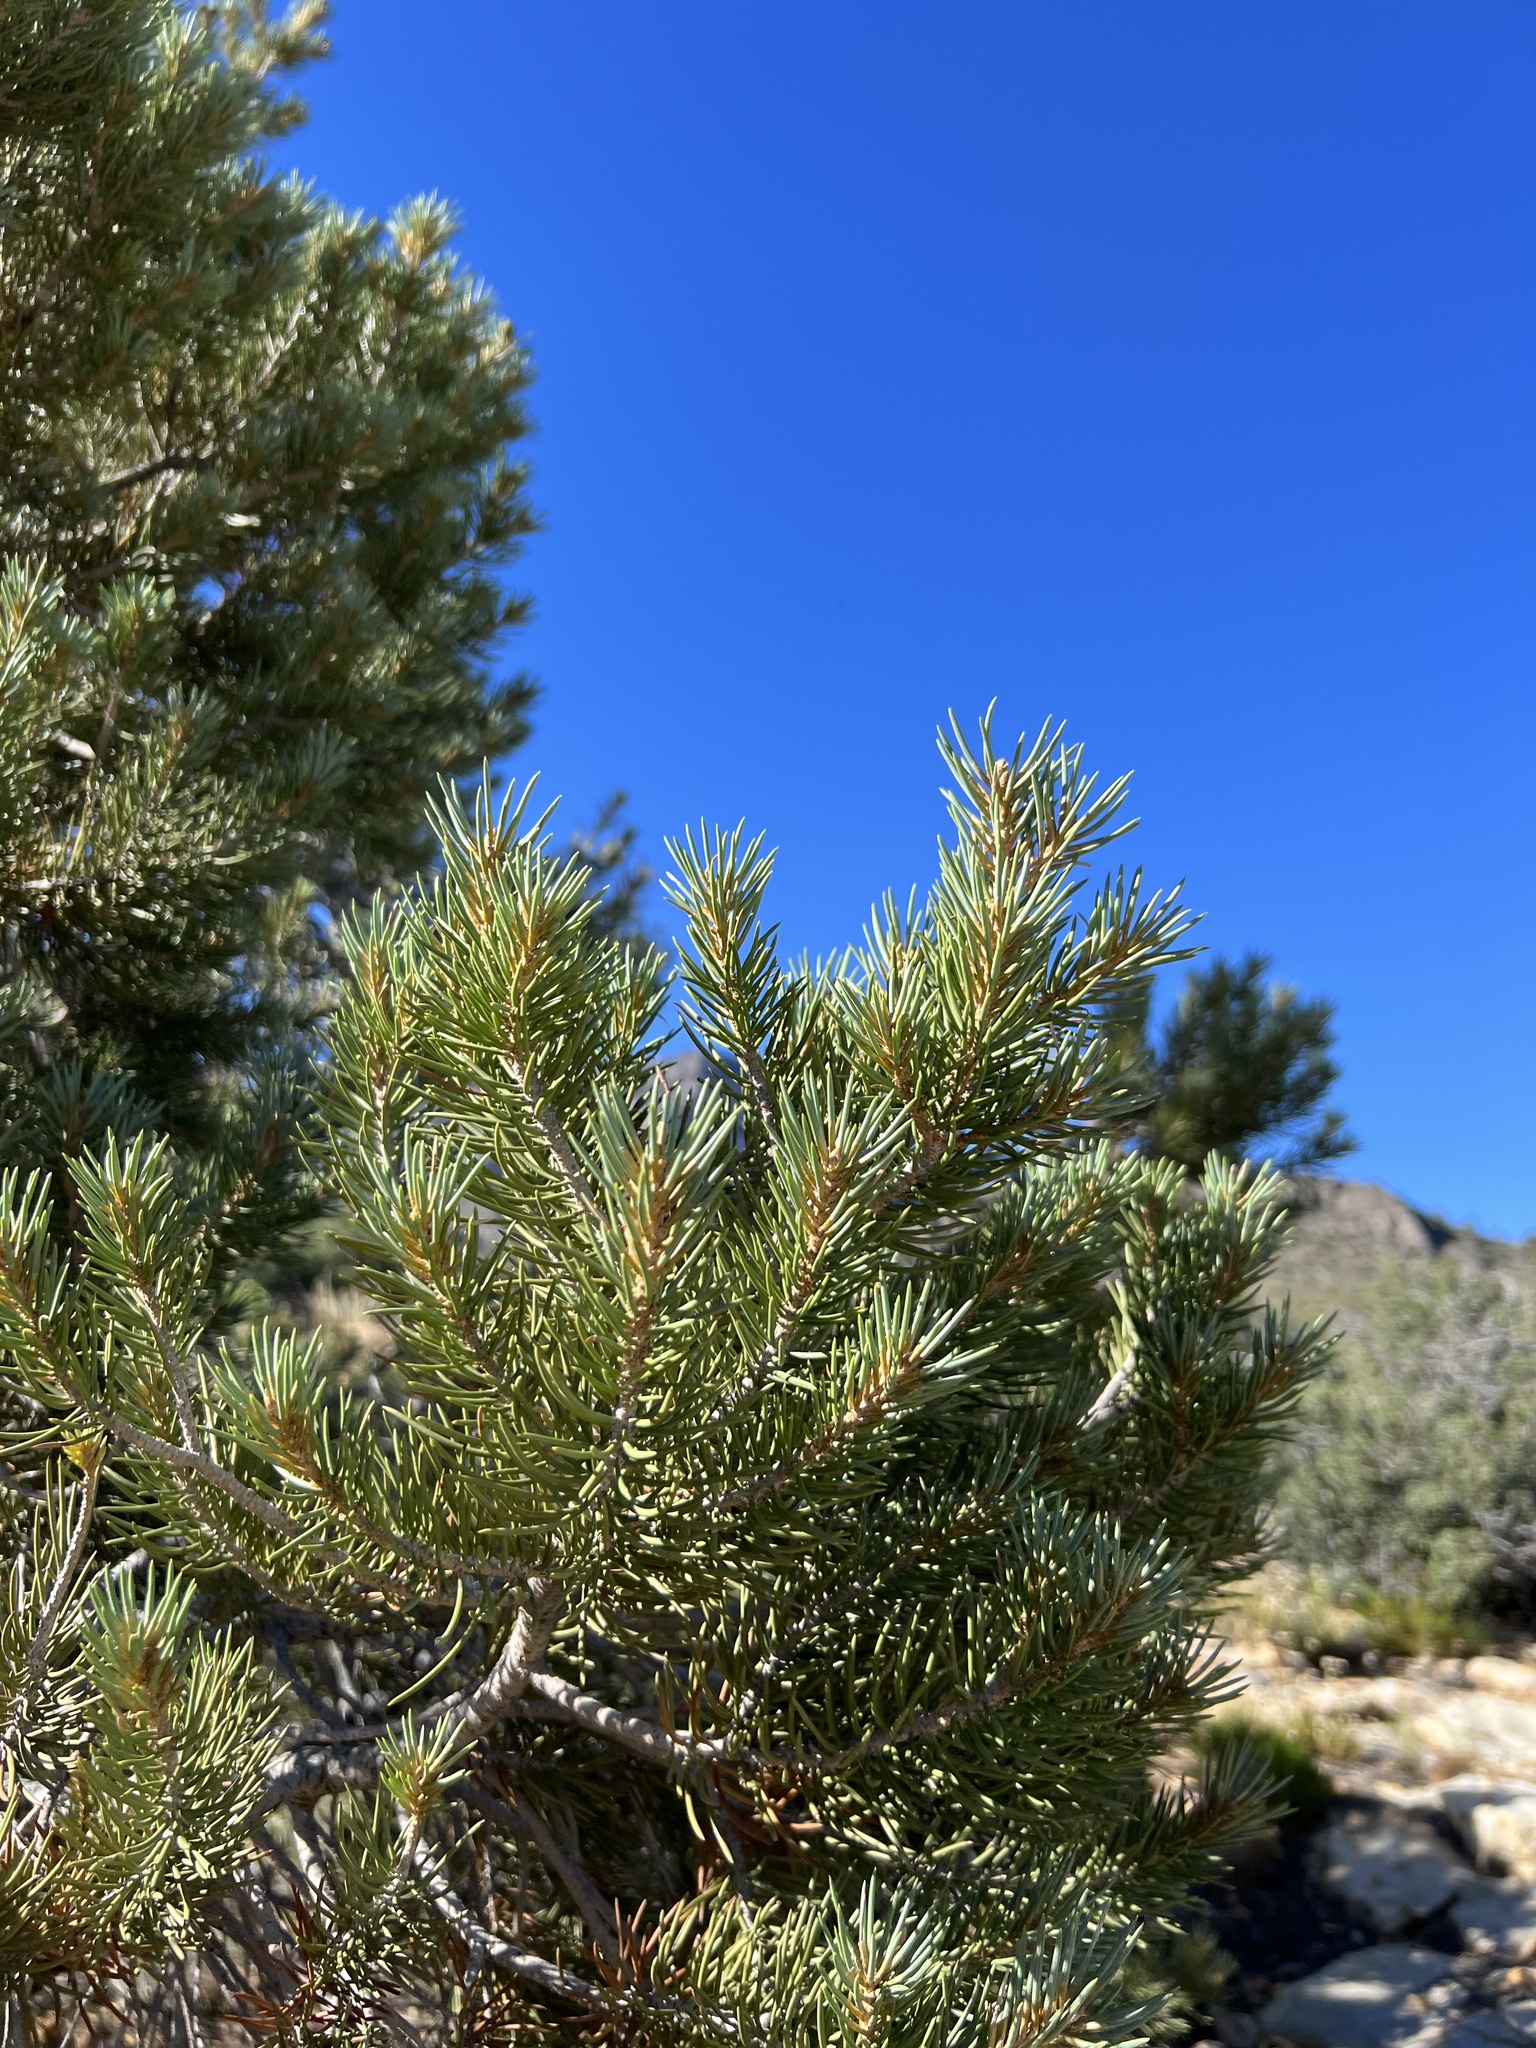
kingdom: Plantae
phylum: Tracheophyta
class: Pinopsida
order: Pinales
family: Pinaceae
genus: Pinus
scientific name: Pinus monophylla
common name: One-leaved nut pine
